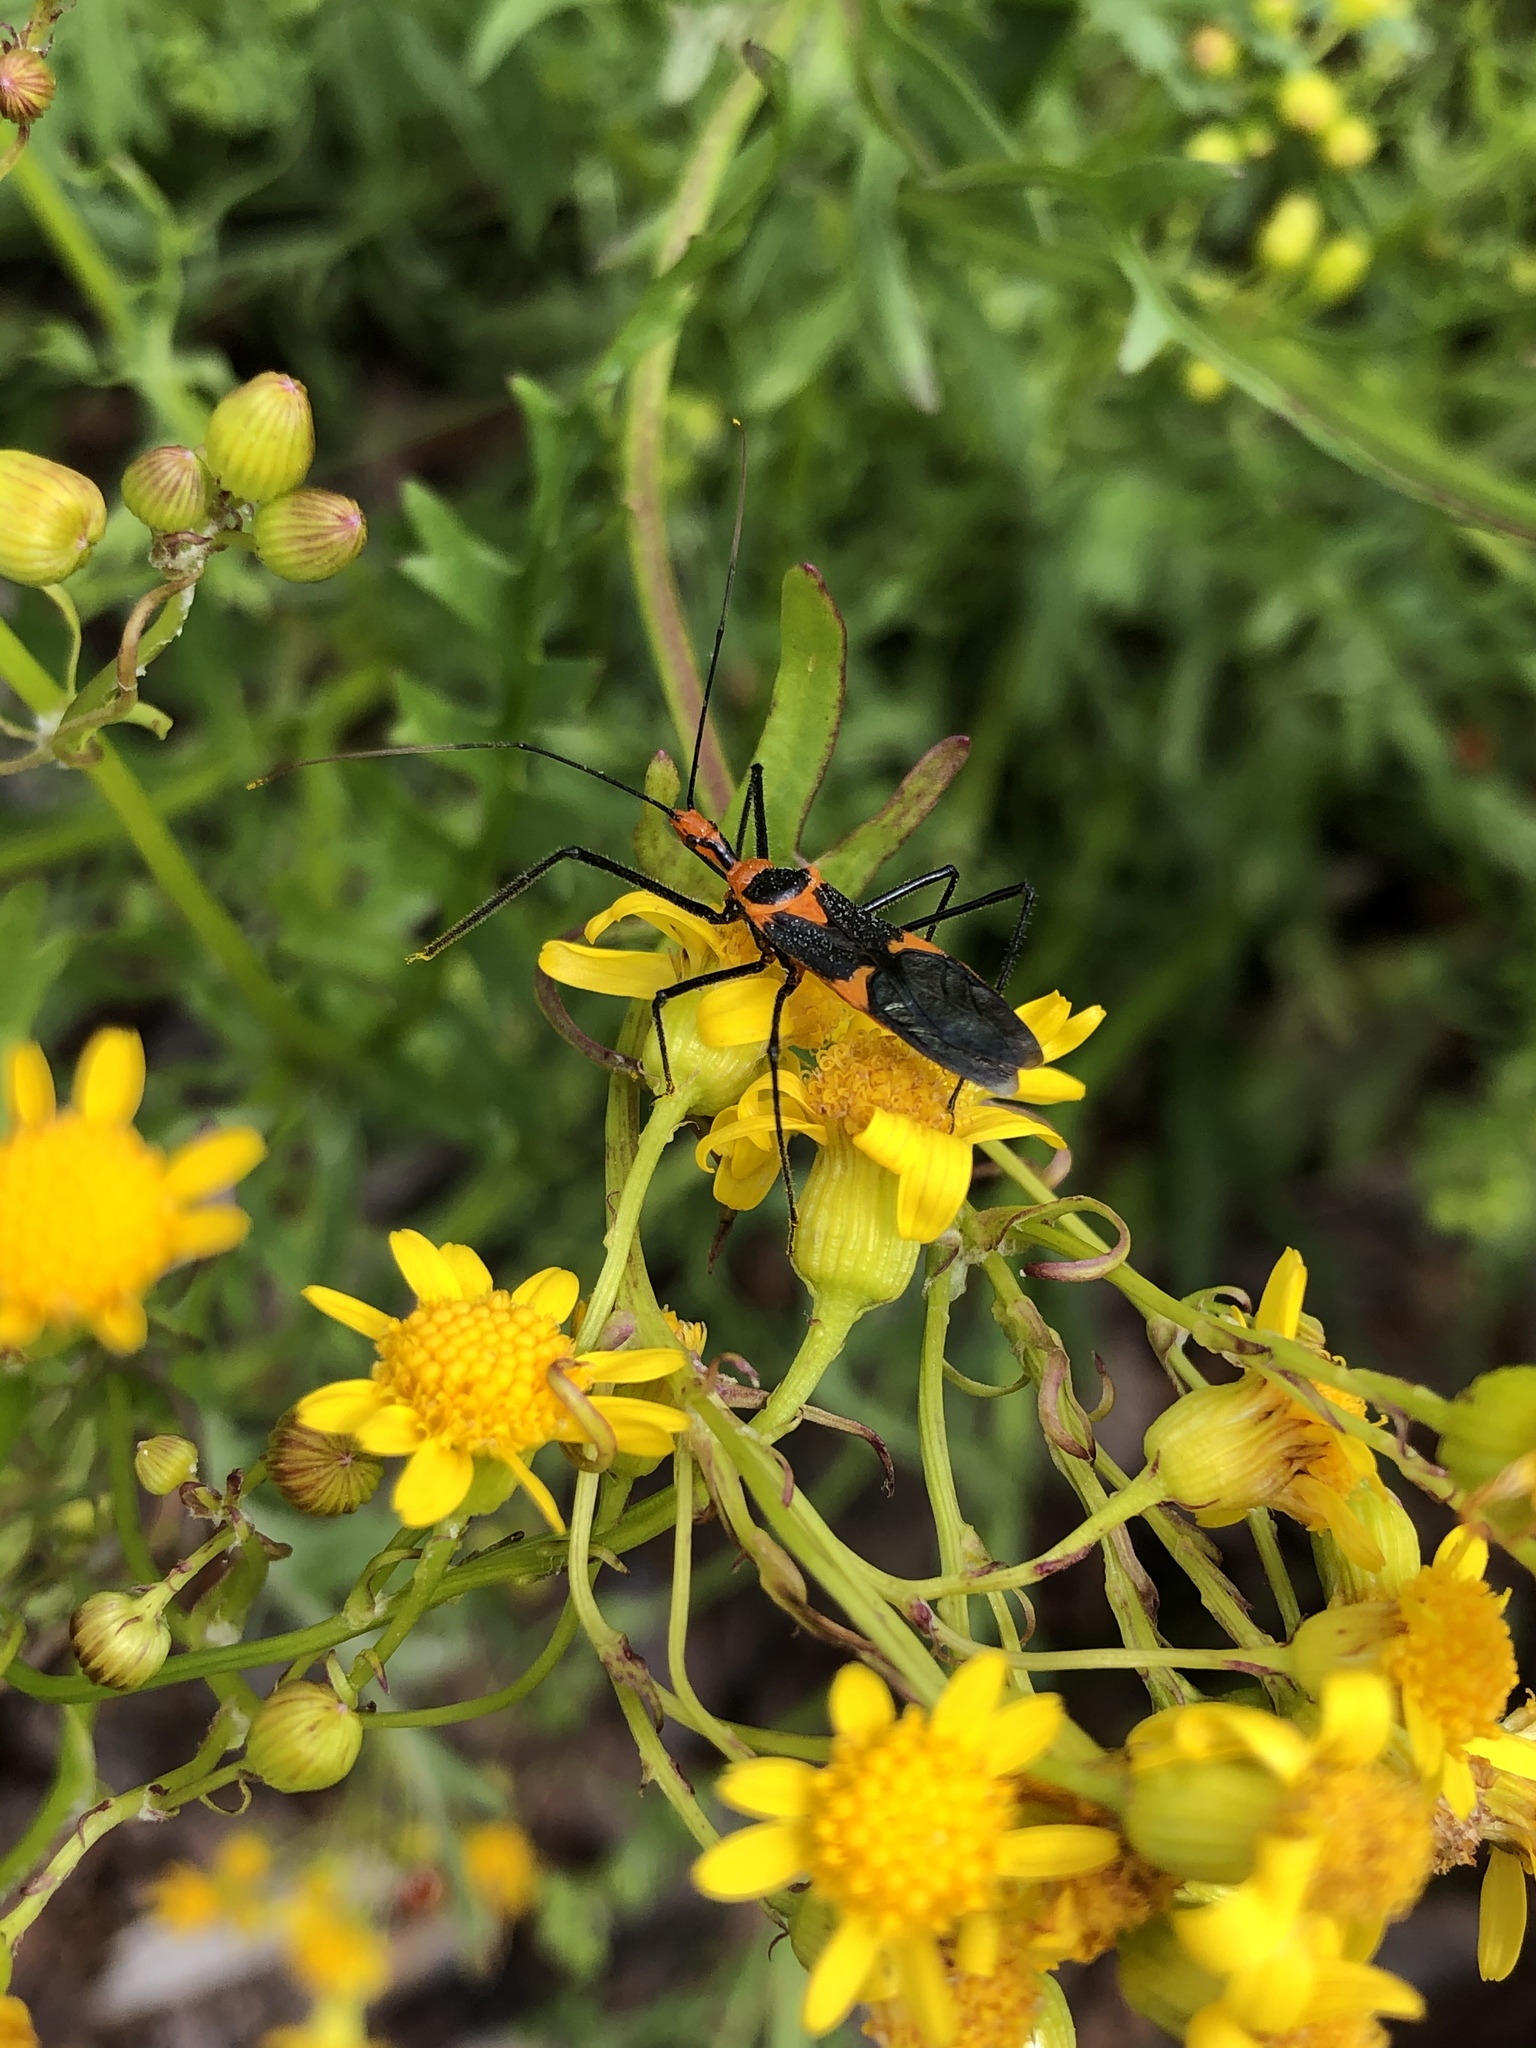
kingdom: Animalia
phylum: Arthropoda
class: Insecta
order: Hemiptera
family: Reduviidae
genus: Zelus
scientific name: Zelus longipes
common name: Milkweed assassin bug
